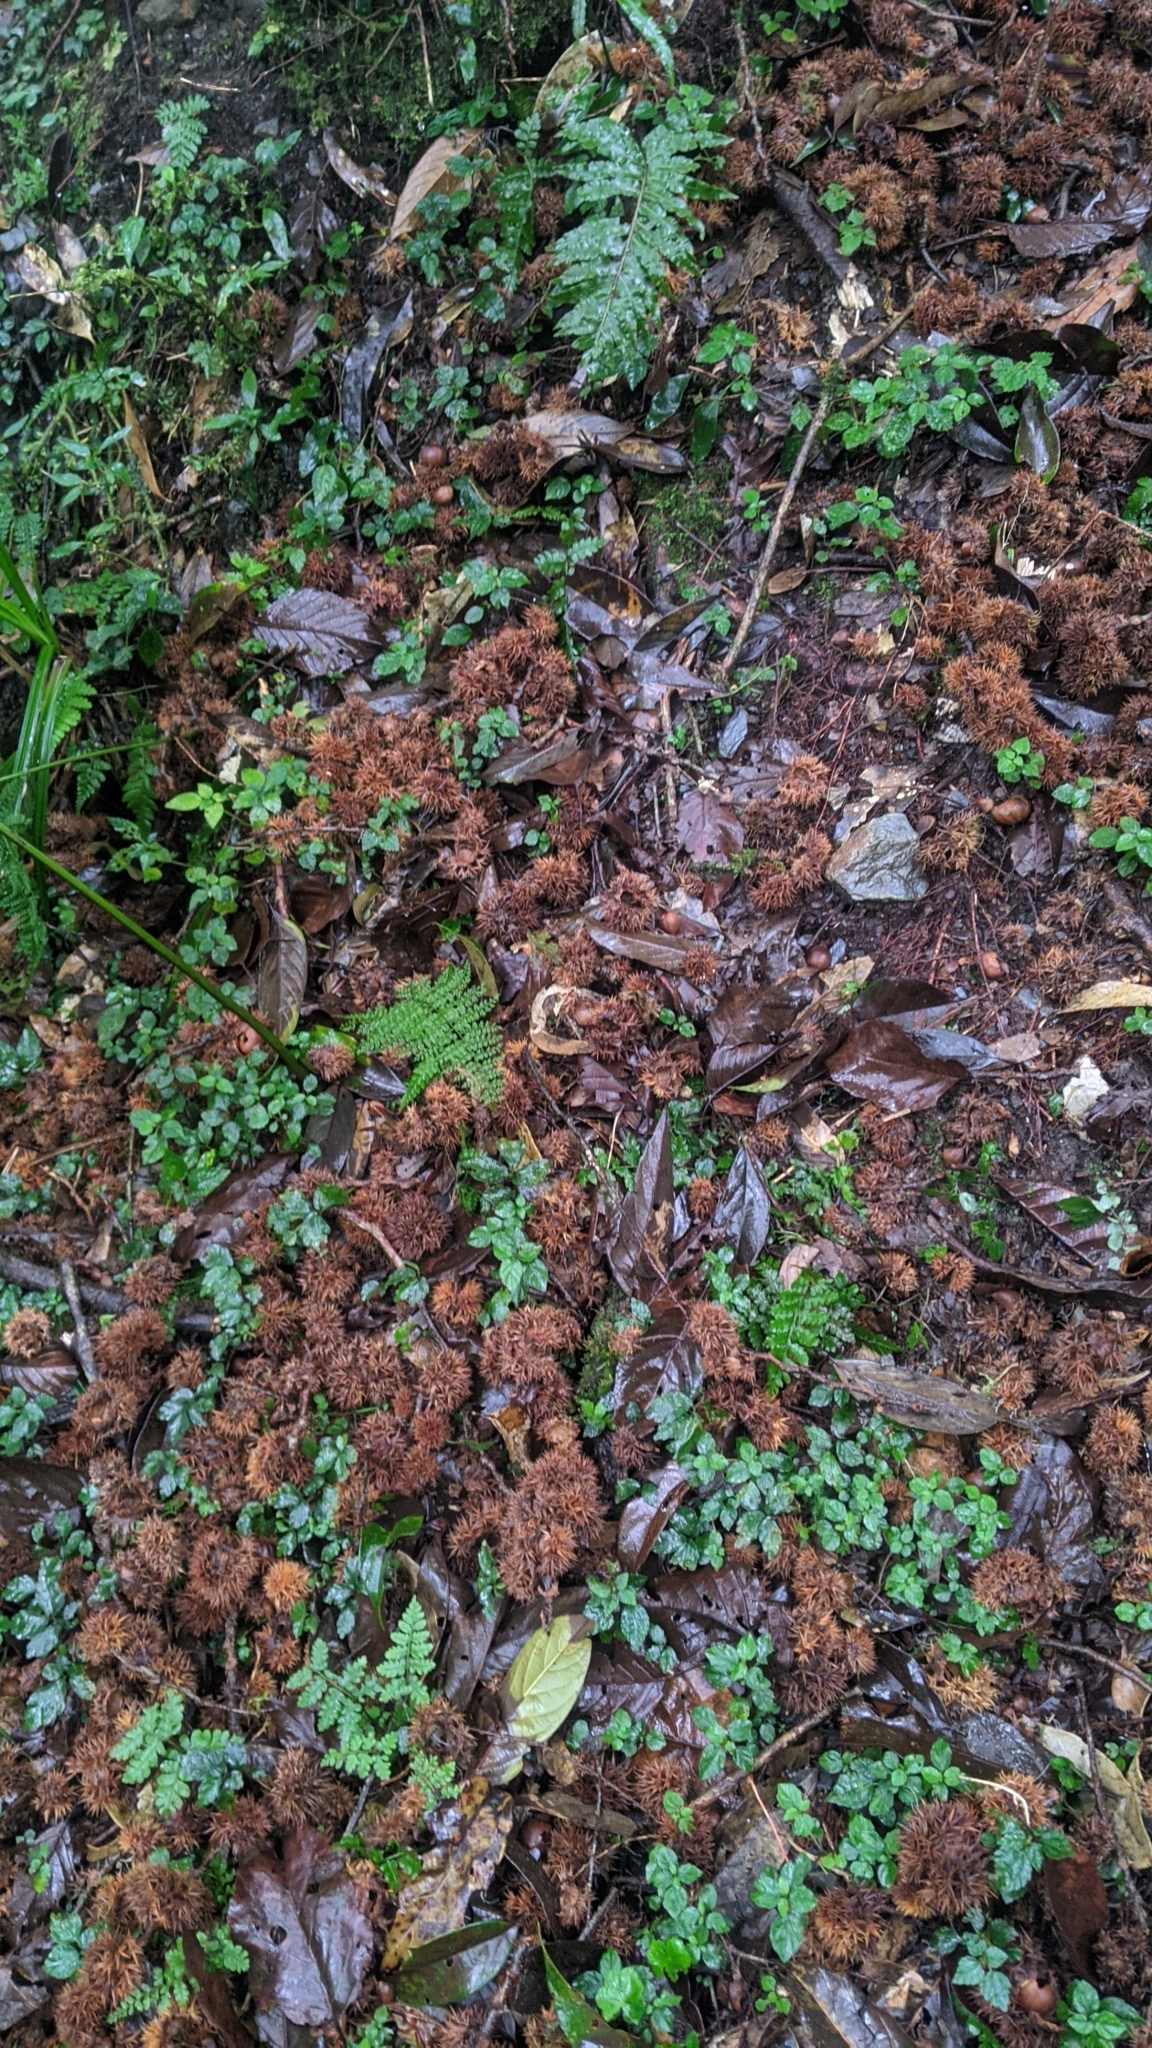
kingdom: Plantae
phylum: Tracheophyta
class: Magnoliopsida
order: Fagales
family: Fagaceae
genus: Castanopsis
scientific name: Castanopsis faberi
